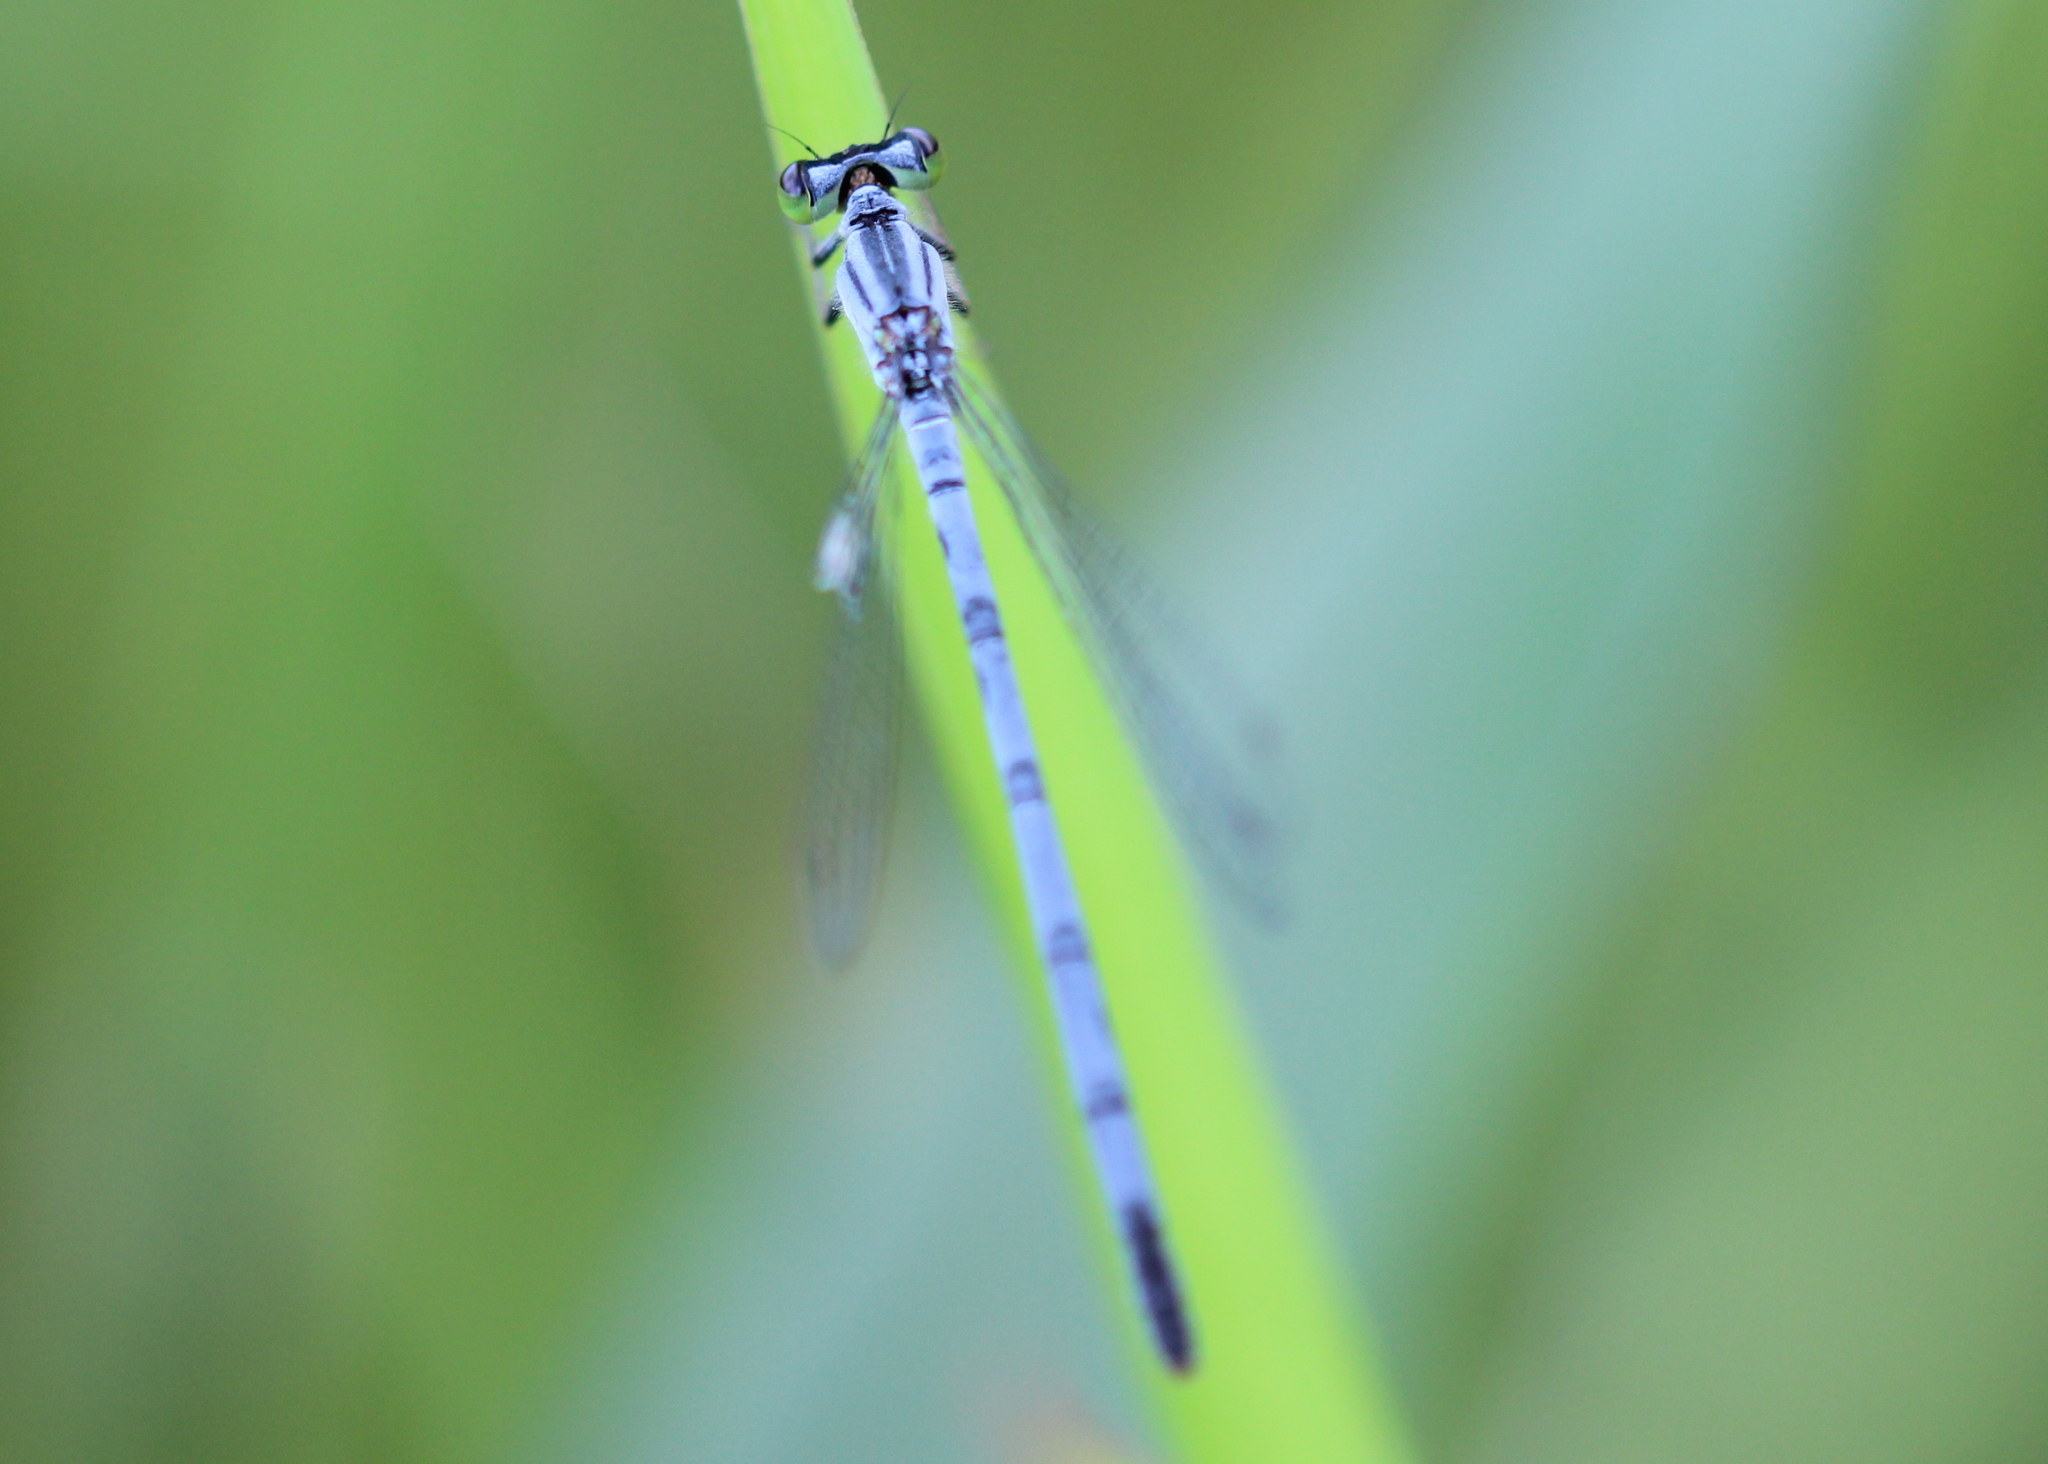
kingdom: Animalia
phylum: Arthropoda
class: Insecta
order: Odonata
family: Coenagrionidae
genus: Ischnura
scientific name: Ischnura verticalis
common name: Eastern forktail
